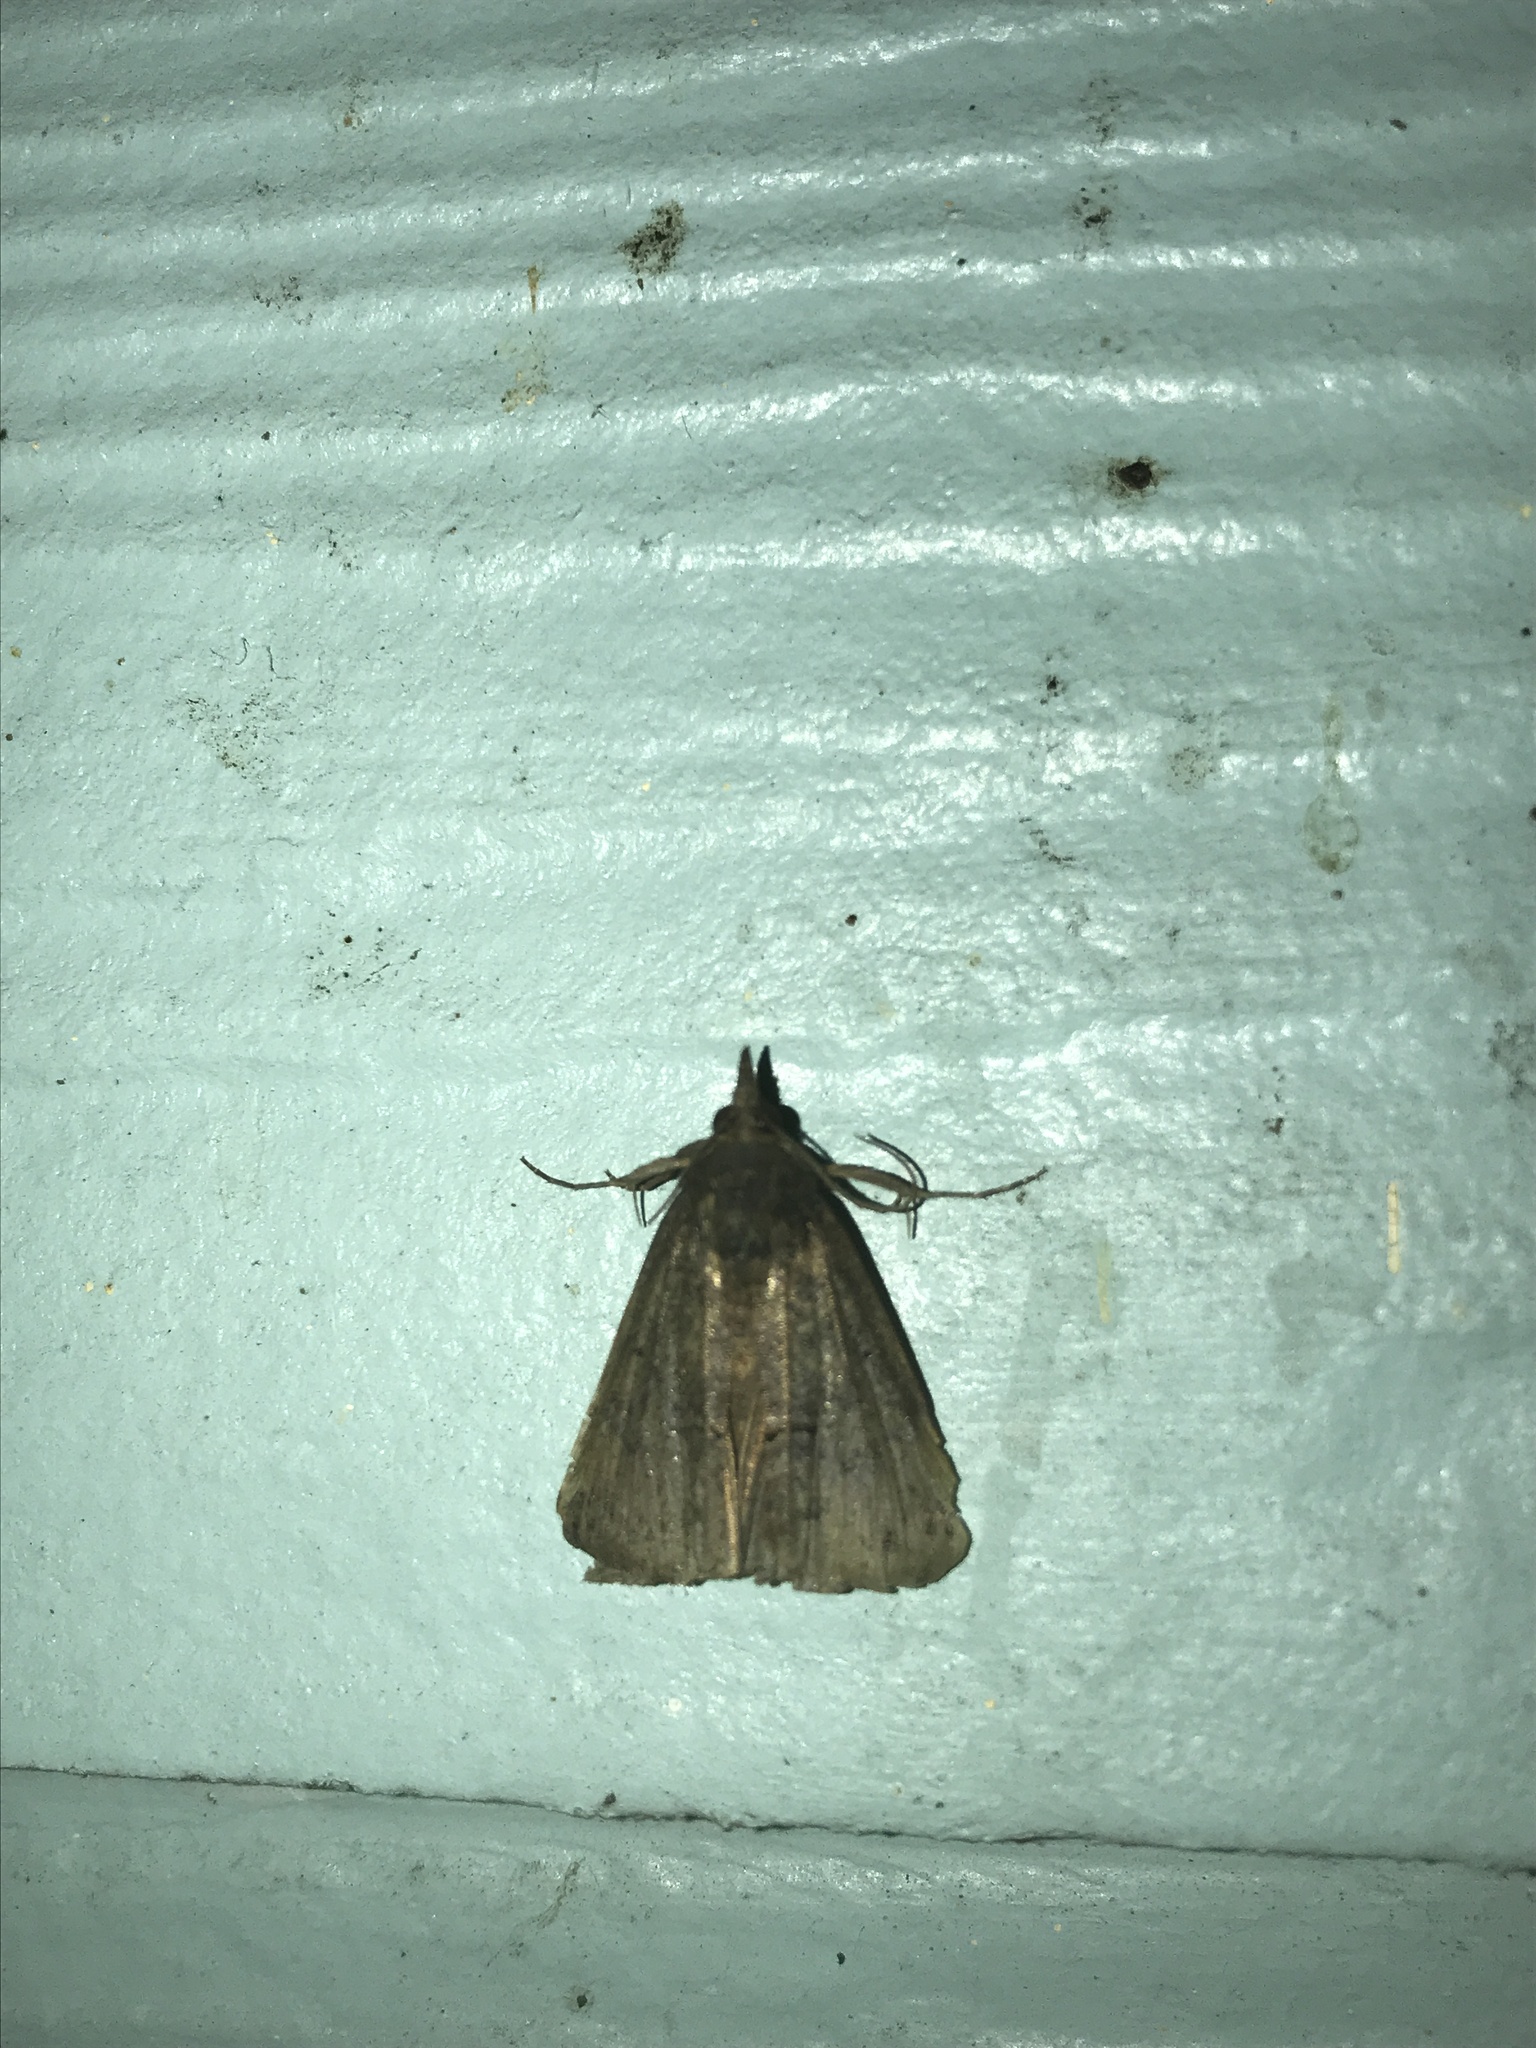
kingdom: Animalia
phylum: Arthropoda
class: Insecta
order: Lepidoptera
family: Erebidae
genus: Hypena
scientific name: Hypena scabra
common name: Green cloverworm
